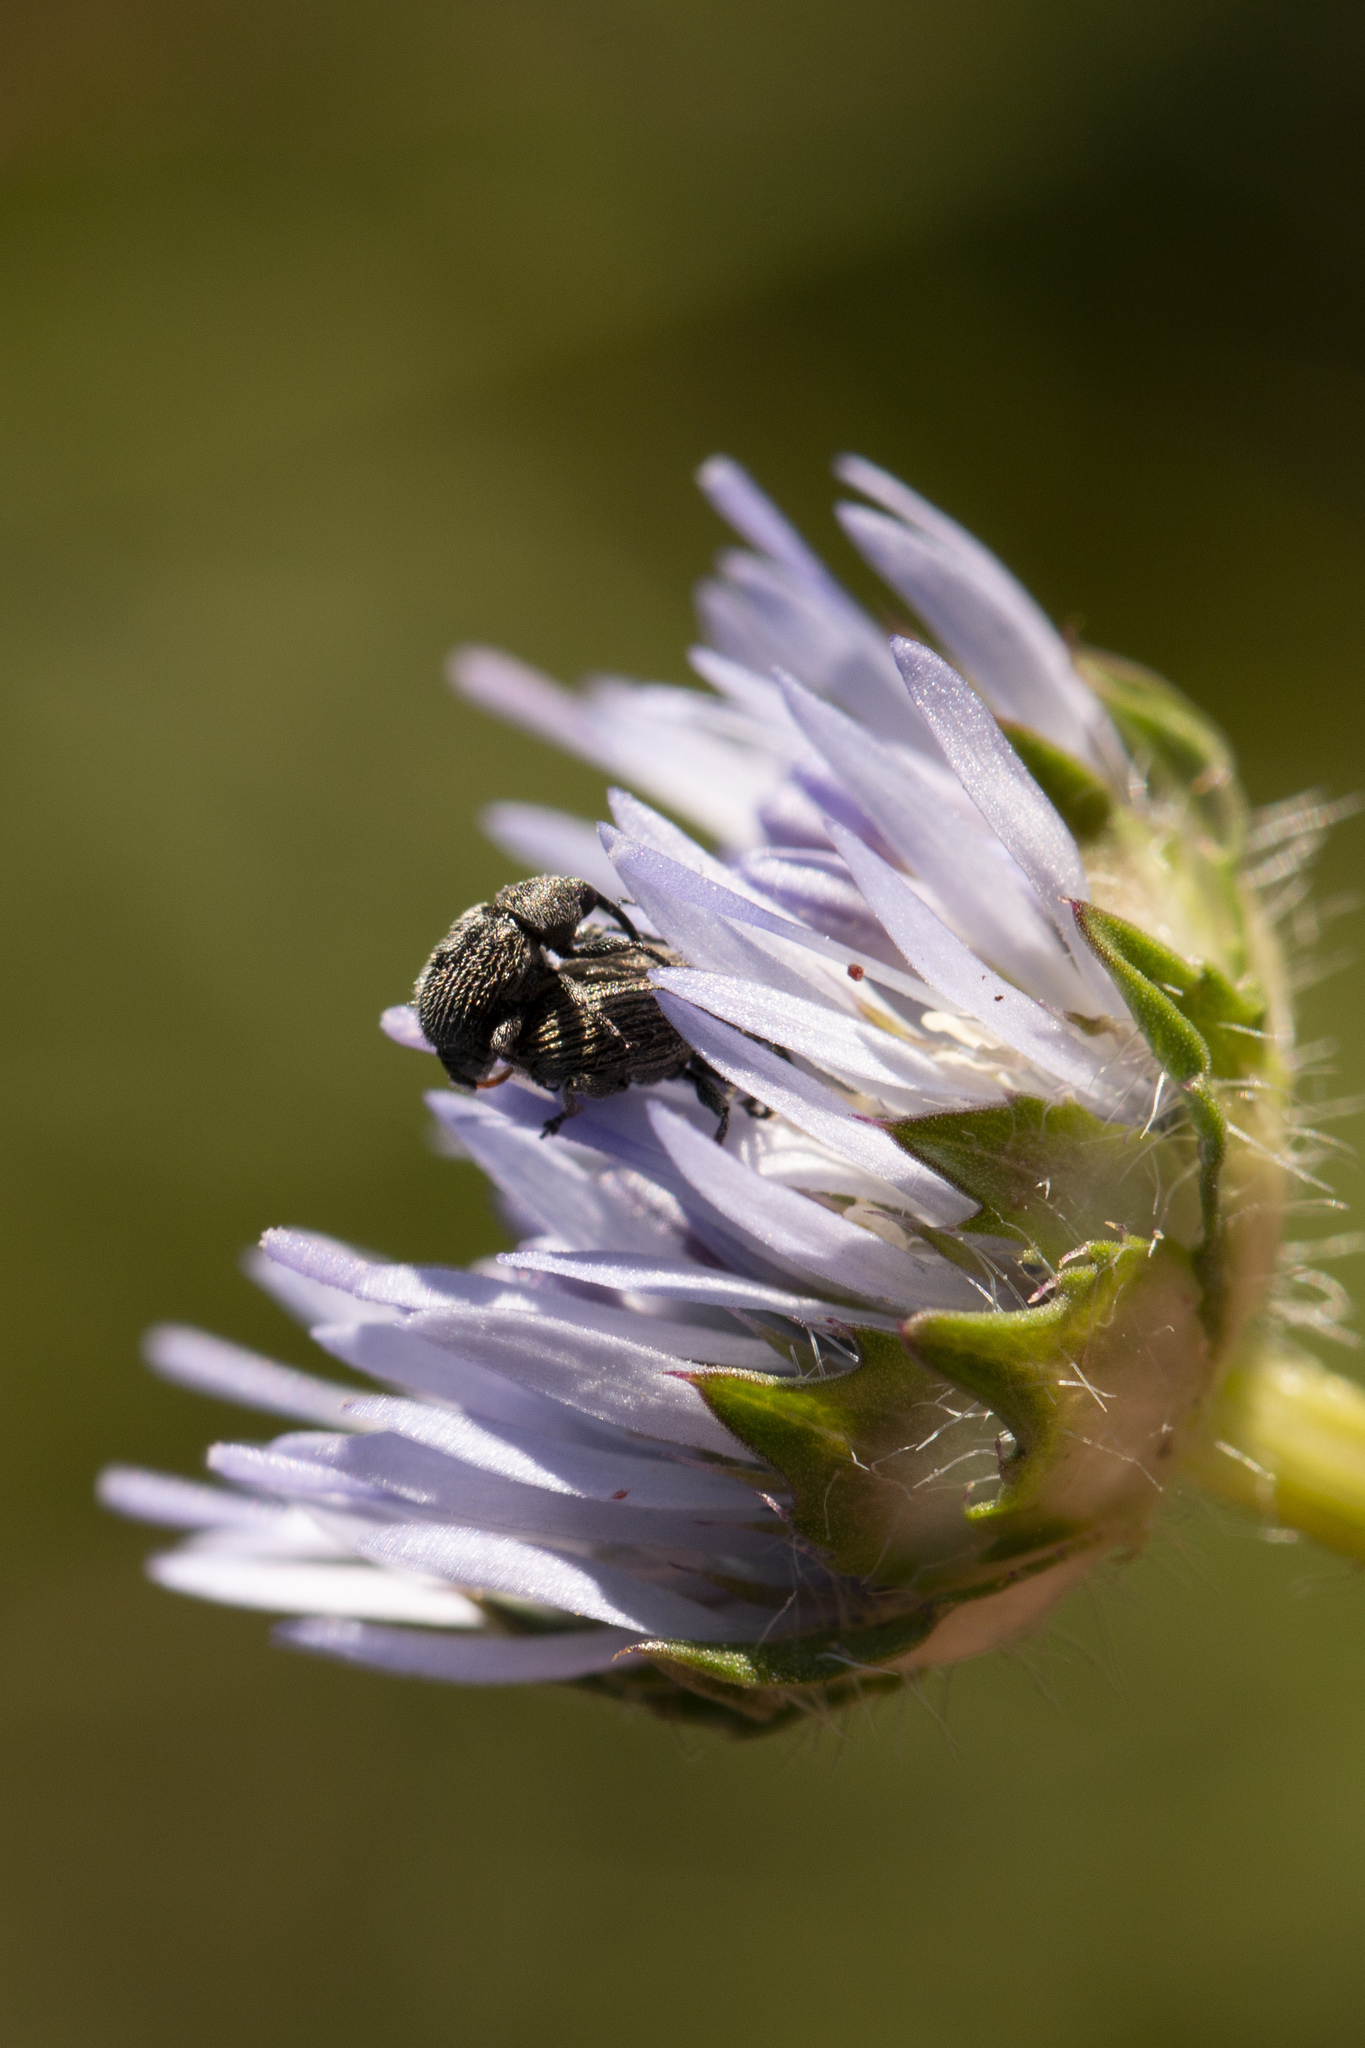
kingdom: Animalia
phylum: Arthropoda
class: Insecta
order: Coleoptera
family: Curculionidae
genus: Cionus
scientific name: Cionus micros
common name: Weevil
